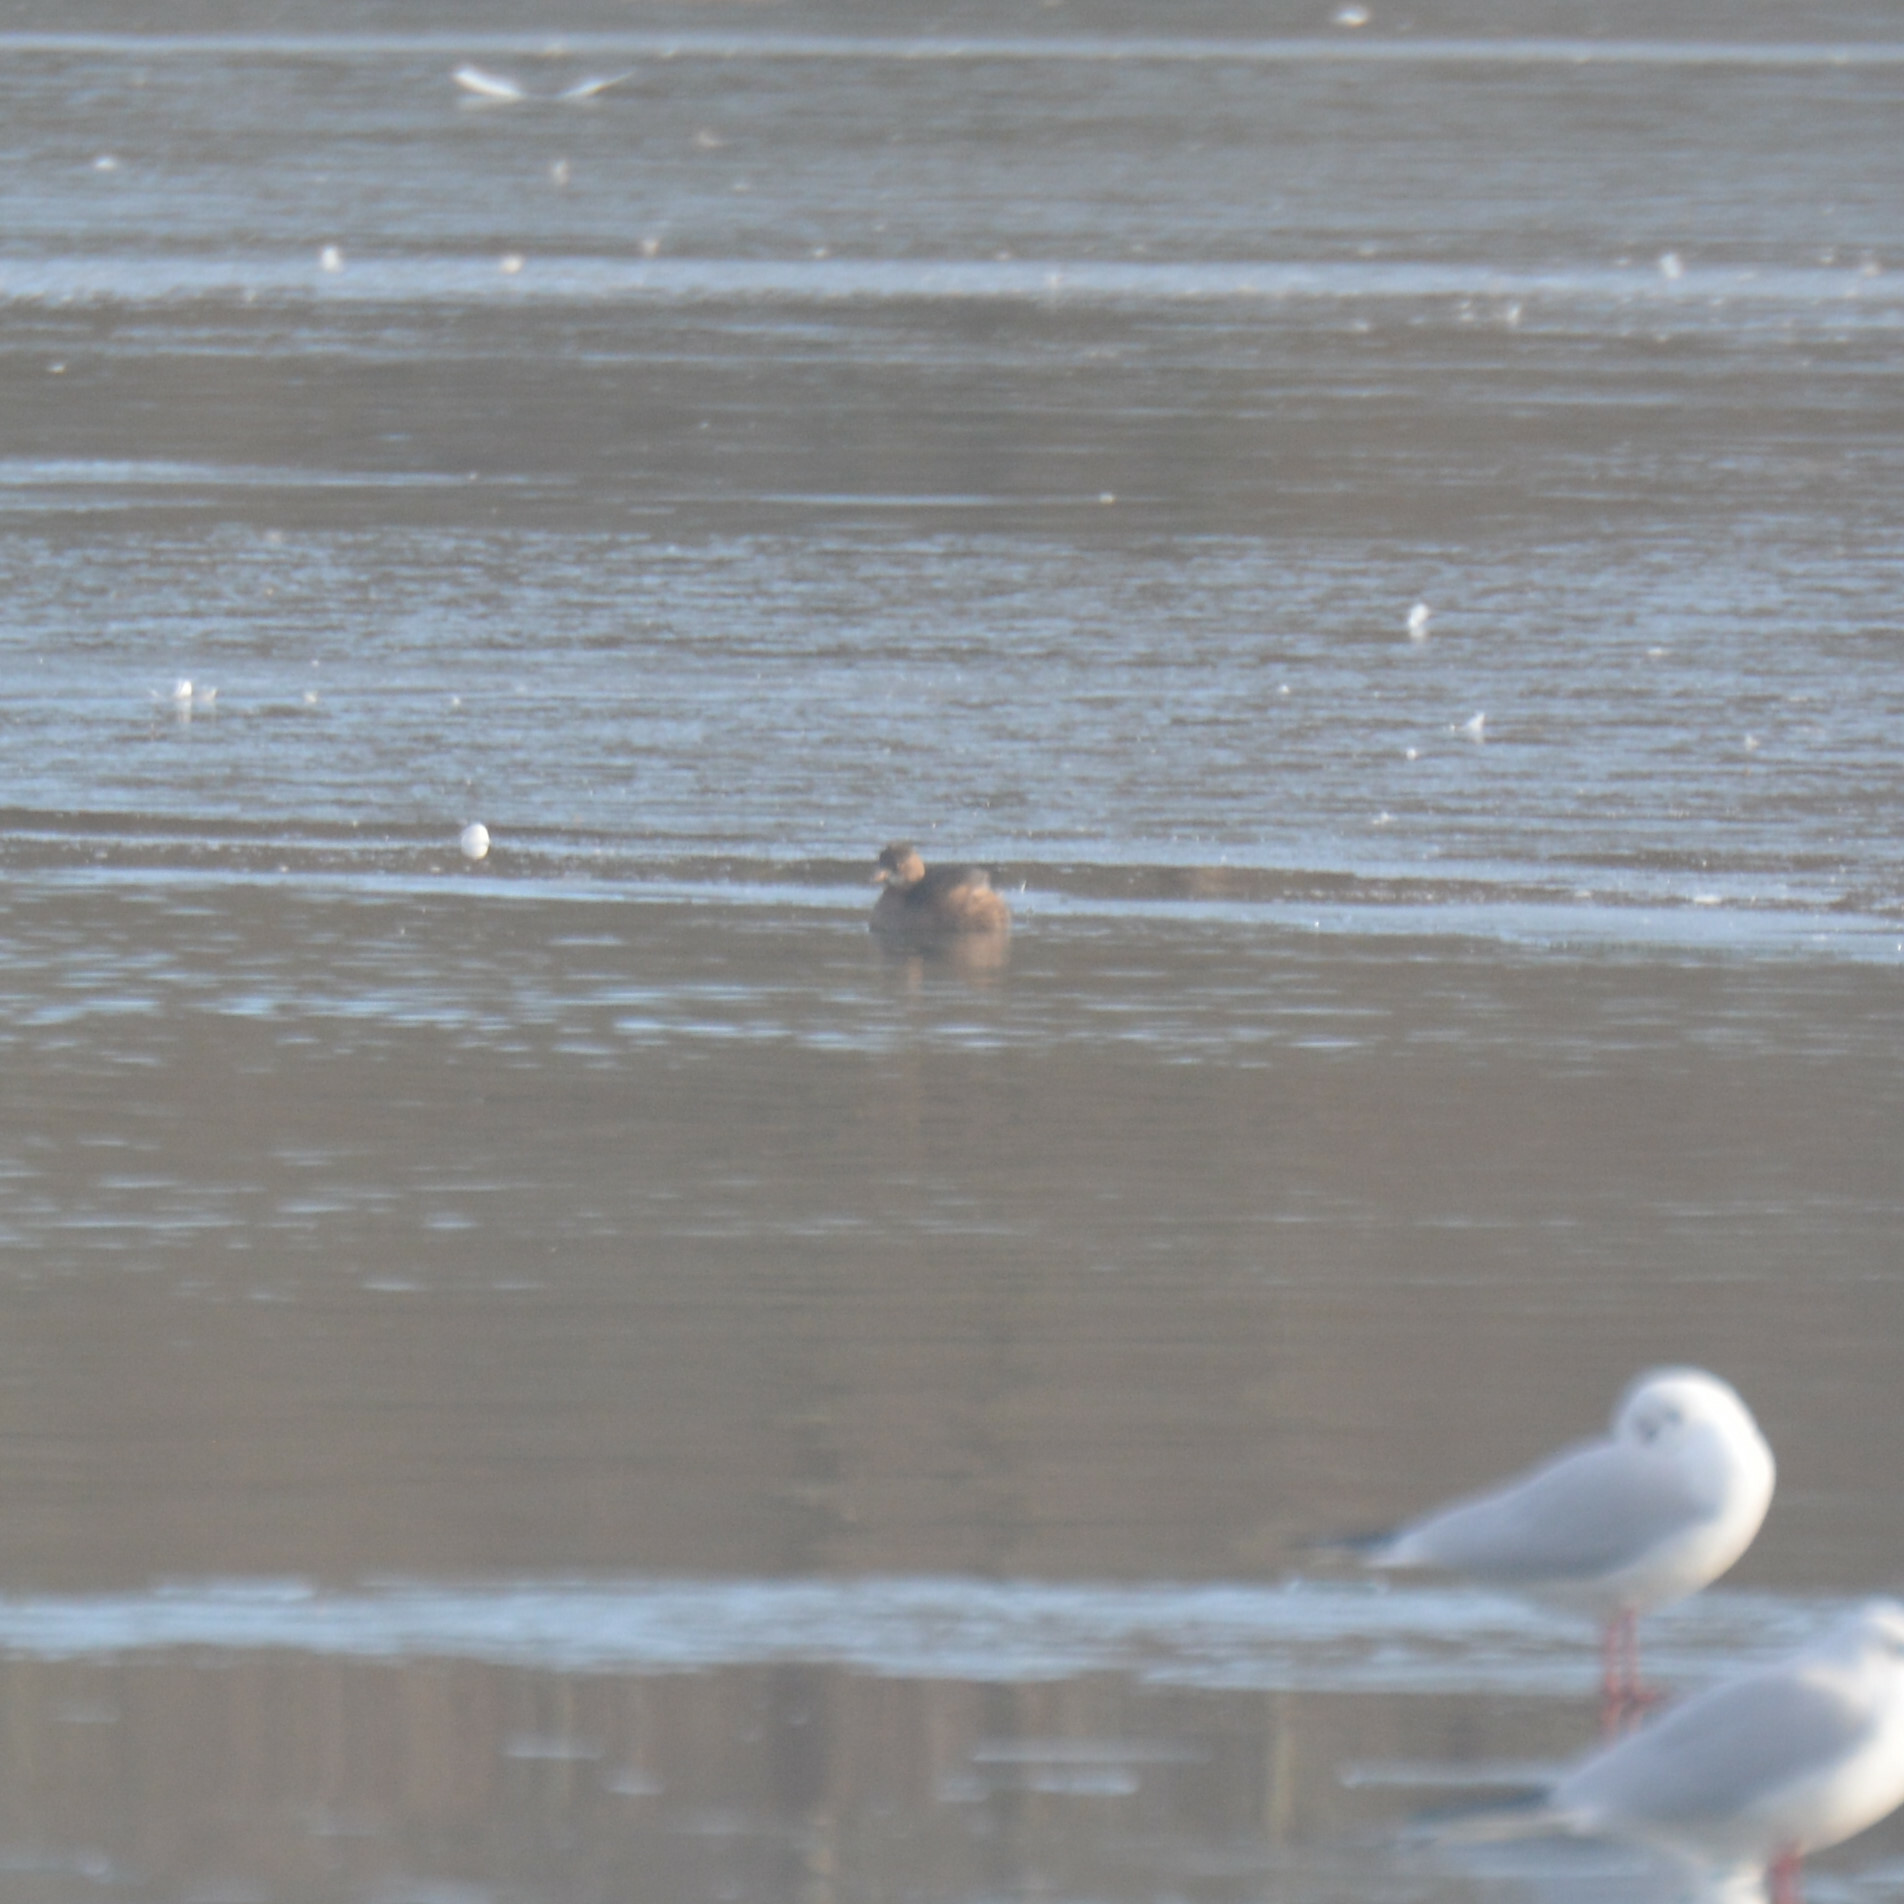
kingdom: Animalia
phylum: Chordata
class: Aves
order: Podicipediformes
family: Podicipedidae
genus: Tachybaptus
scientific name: Tachybaptus ruficollis
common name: Little grebe
